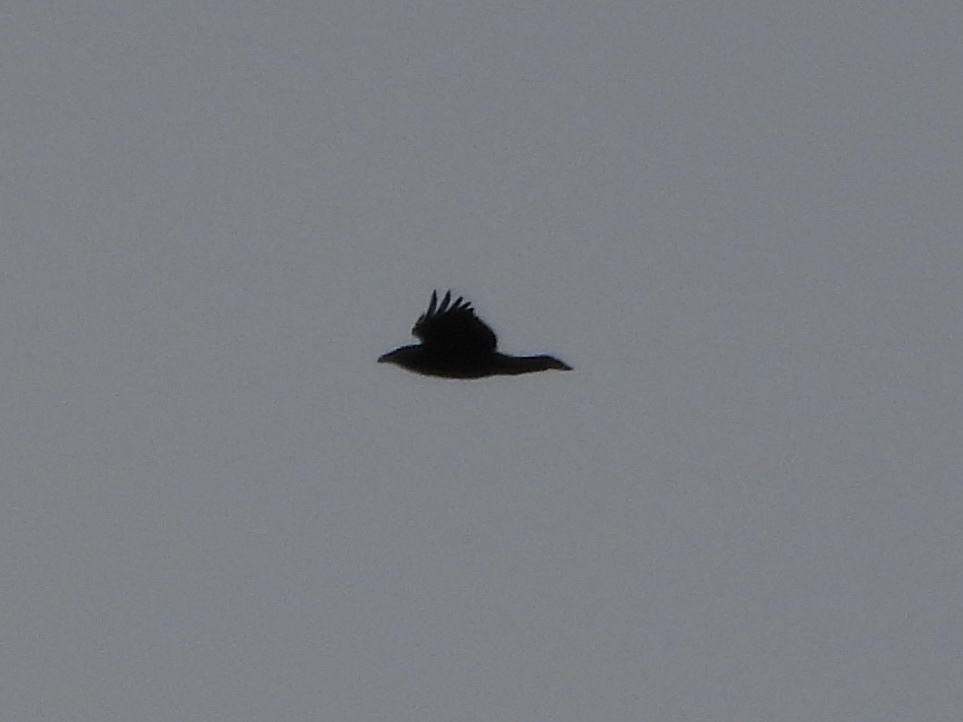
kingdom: Animalia
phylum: Chordata
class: Aves
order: Passeriformes
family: Corvidae
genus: Corvus
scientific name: Corvus corax
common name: Common raven
